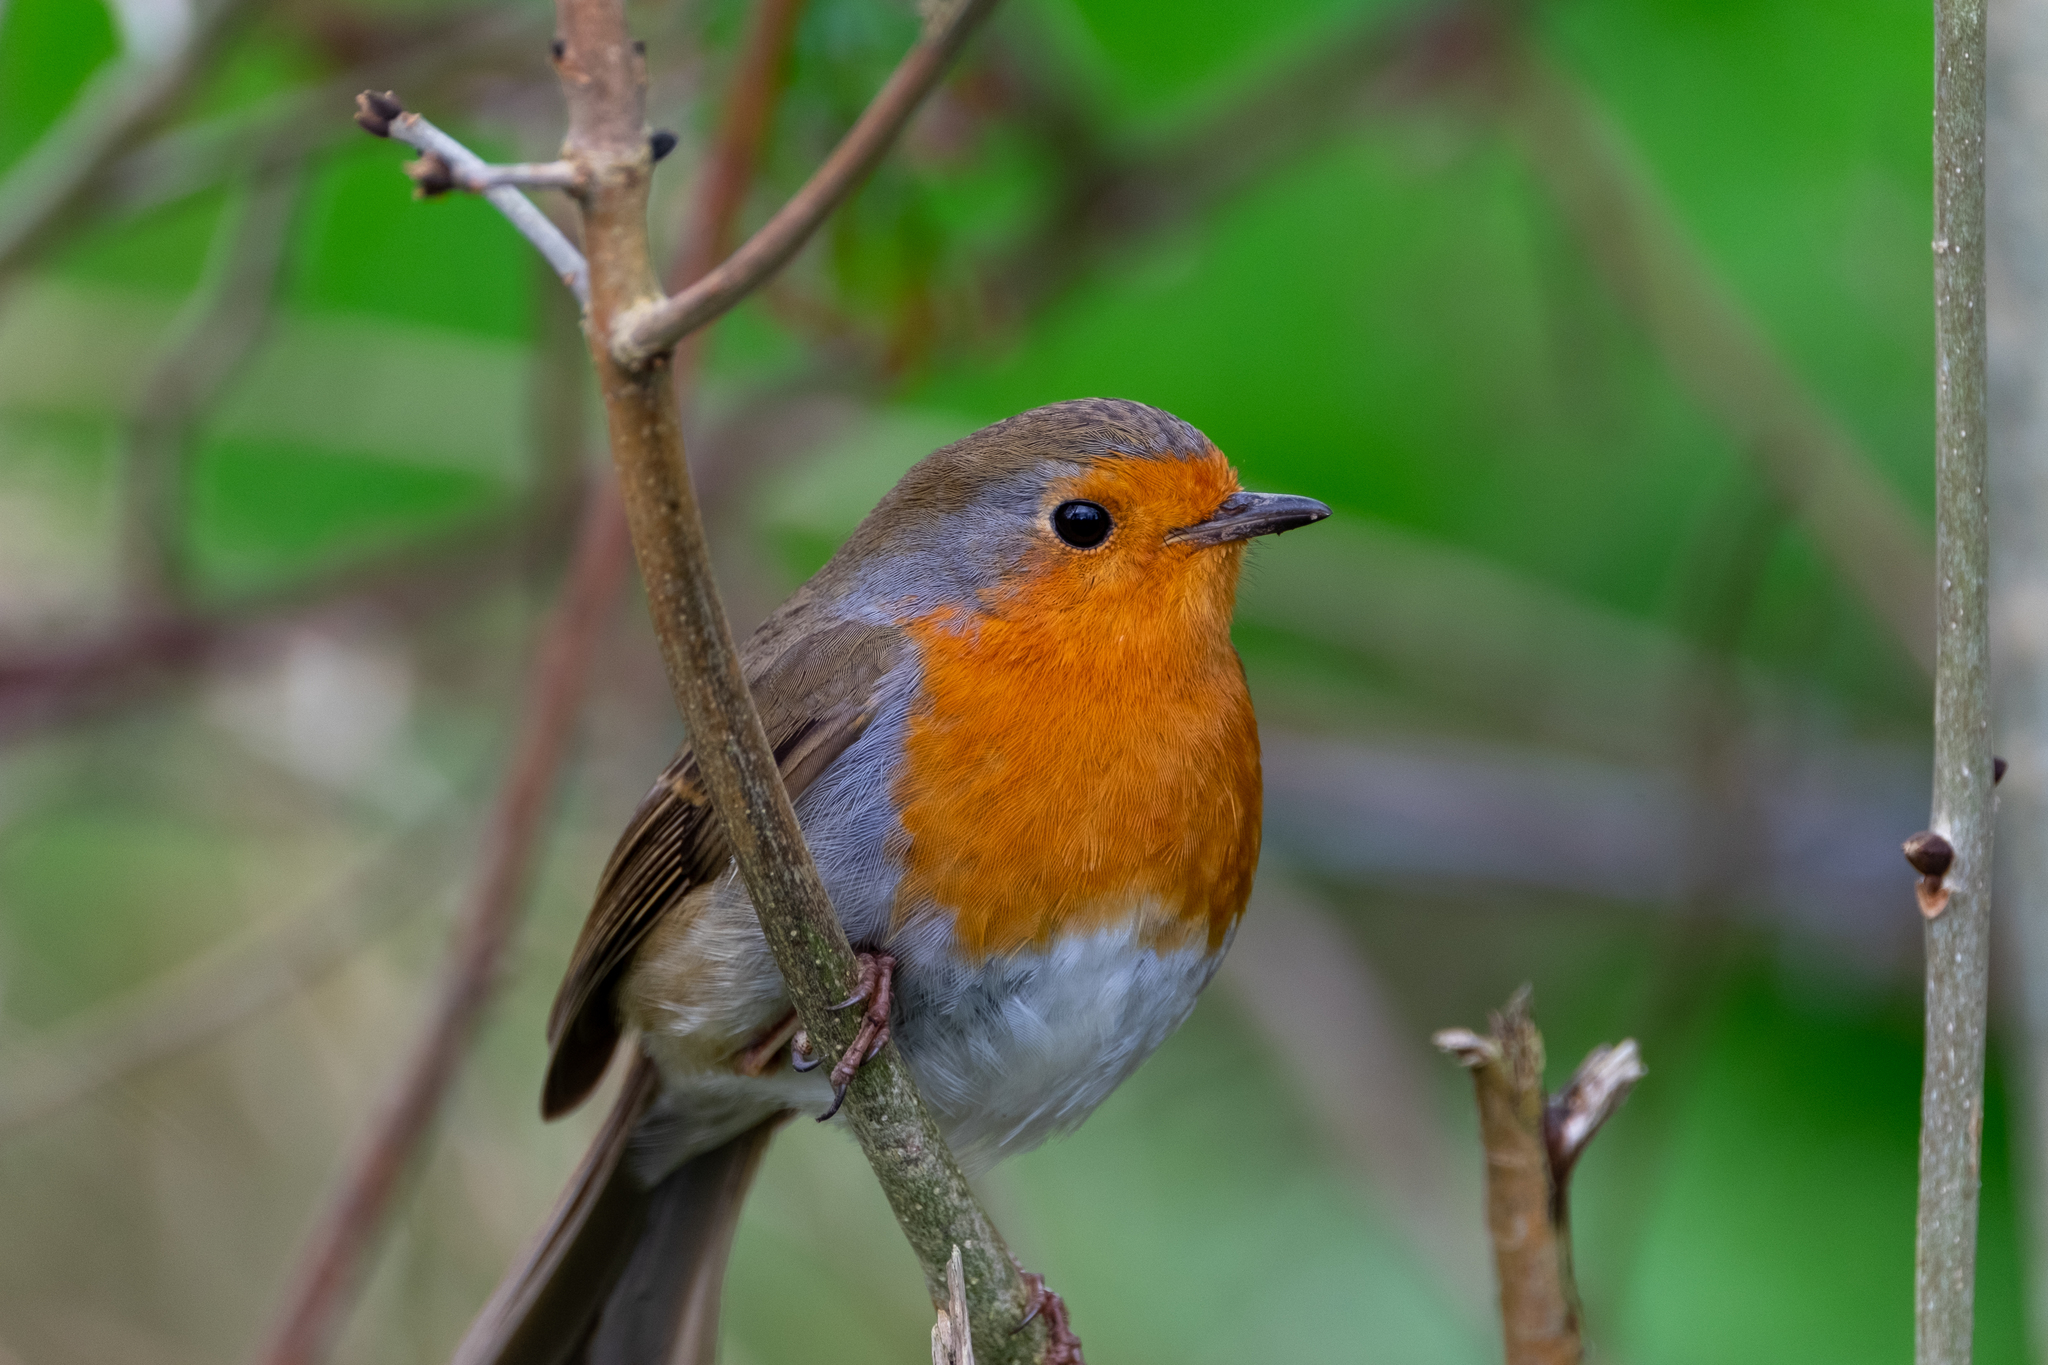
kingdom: Animalia
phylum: Chordata
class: Aves
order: Passeriformes
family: Muscicapidae
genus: Erithacus
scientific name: Erithacus rubecula
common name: European robin
